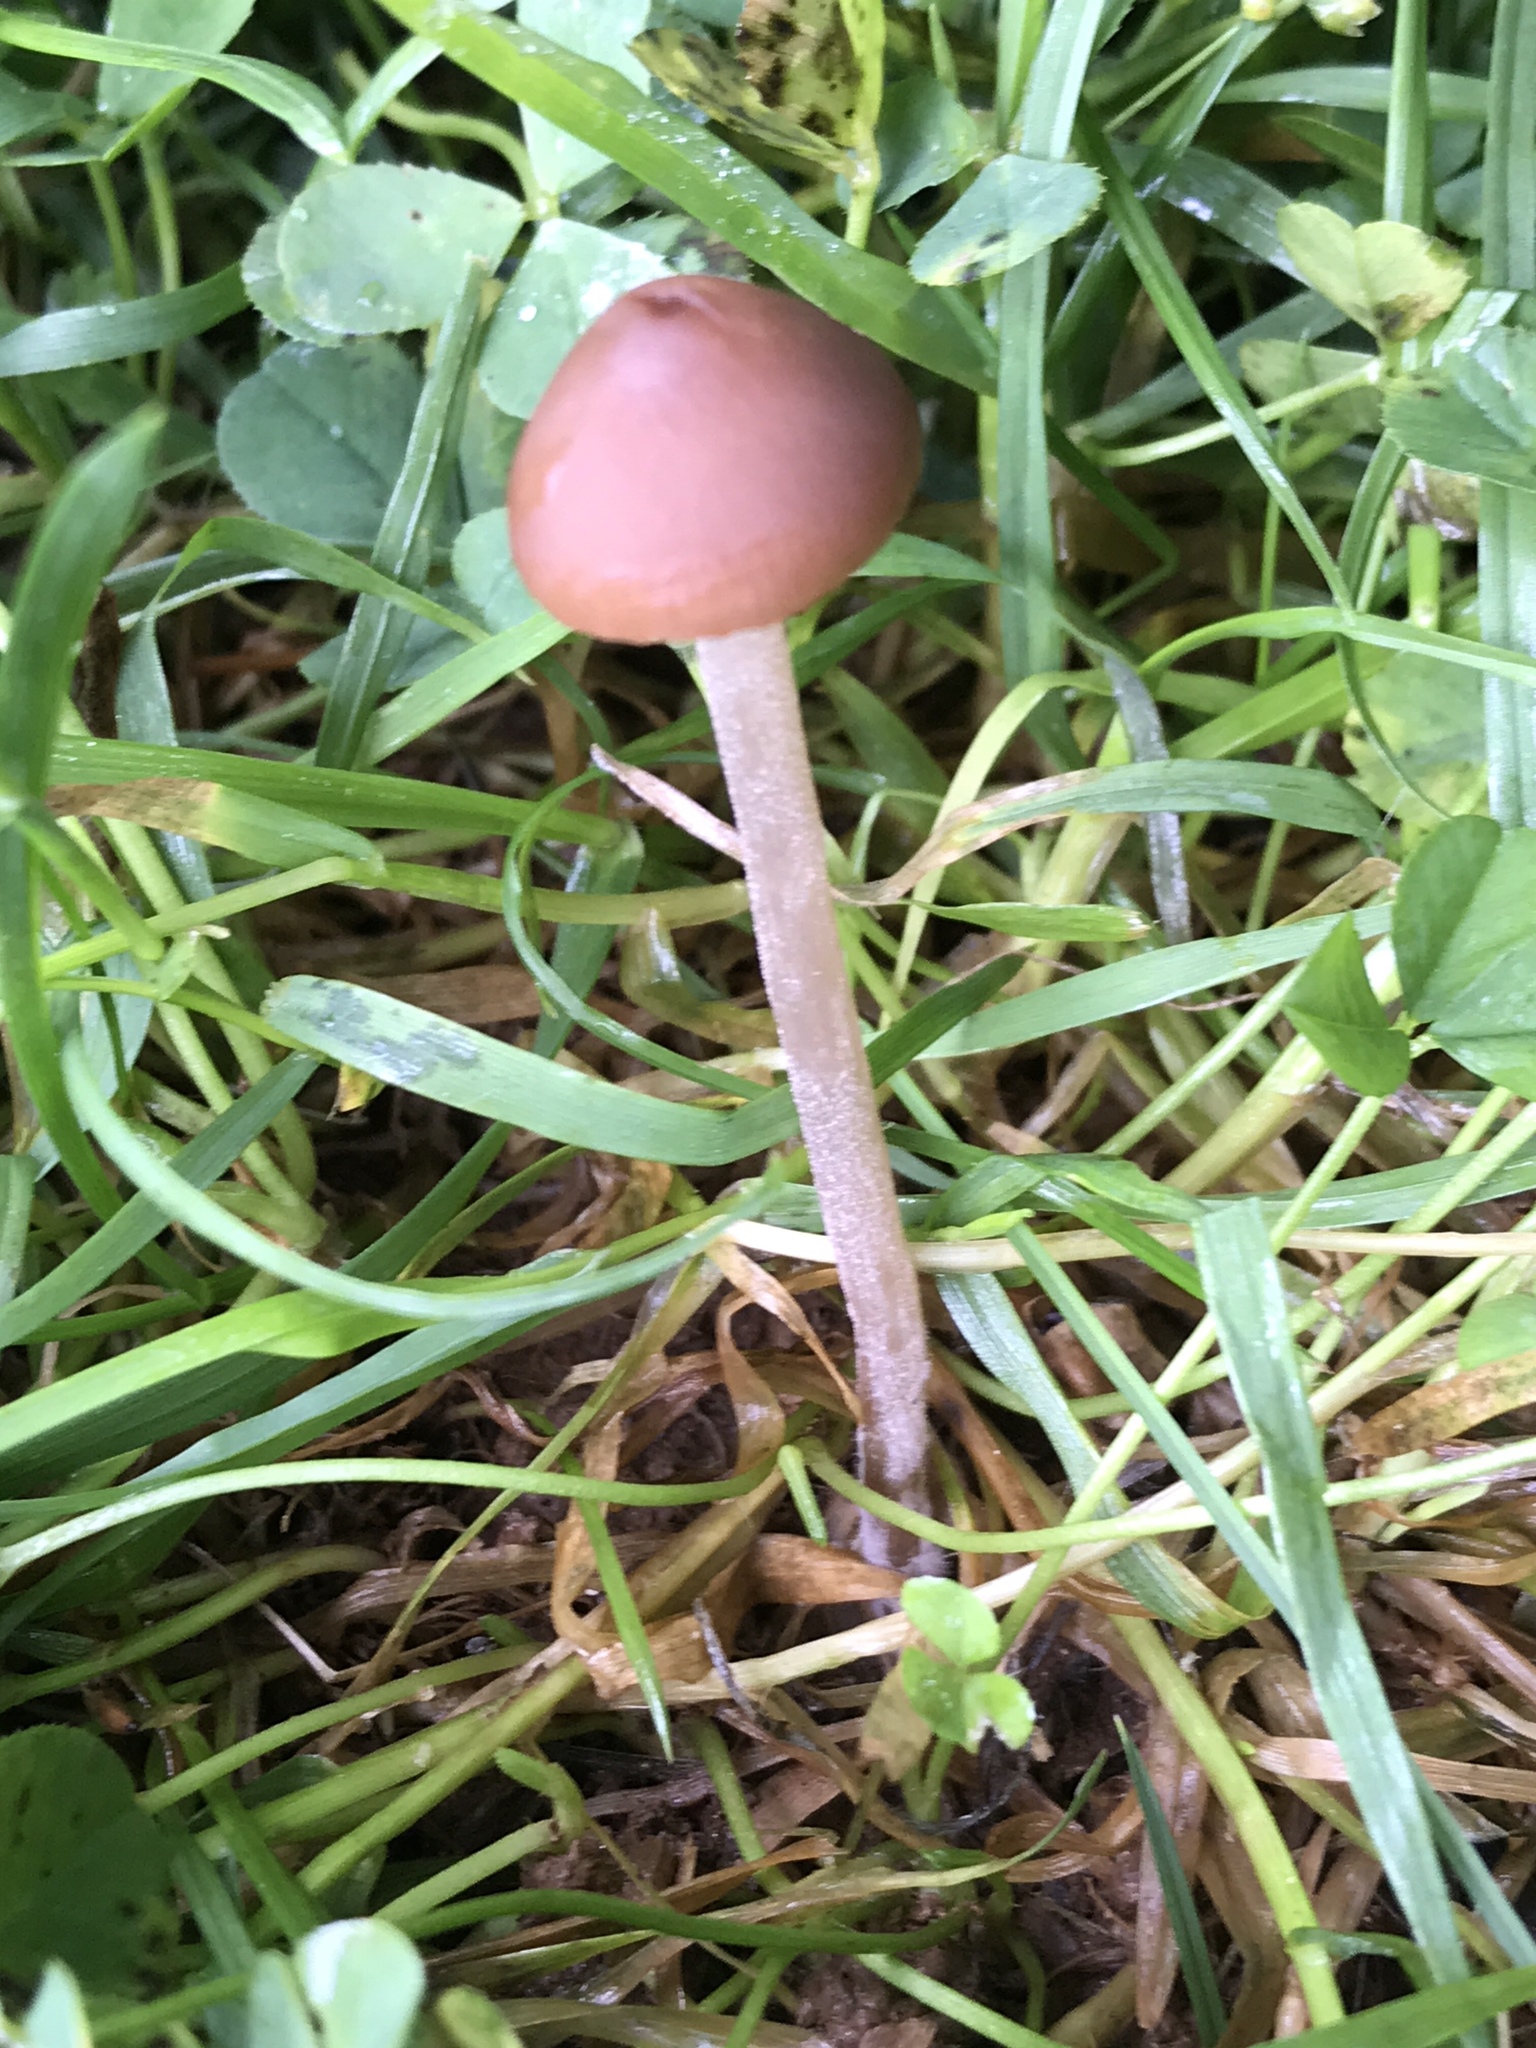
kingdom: Fungi
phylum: Basidiomycota
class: Agaricomycetes
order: Agaricales
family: Bolbitiaceae
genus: Panaeolina
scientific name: Panaeolina foenisecii
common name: Brown hay cap
